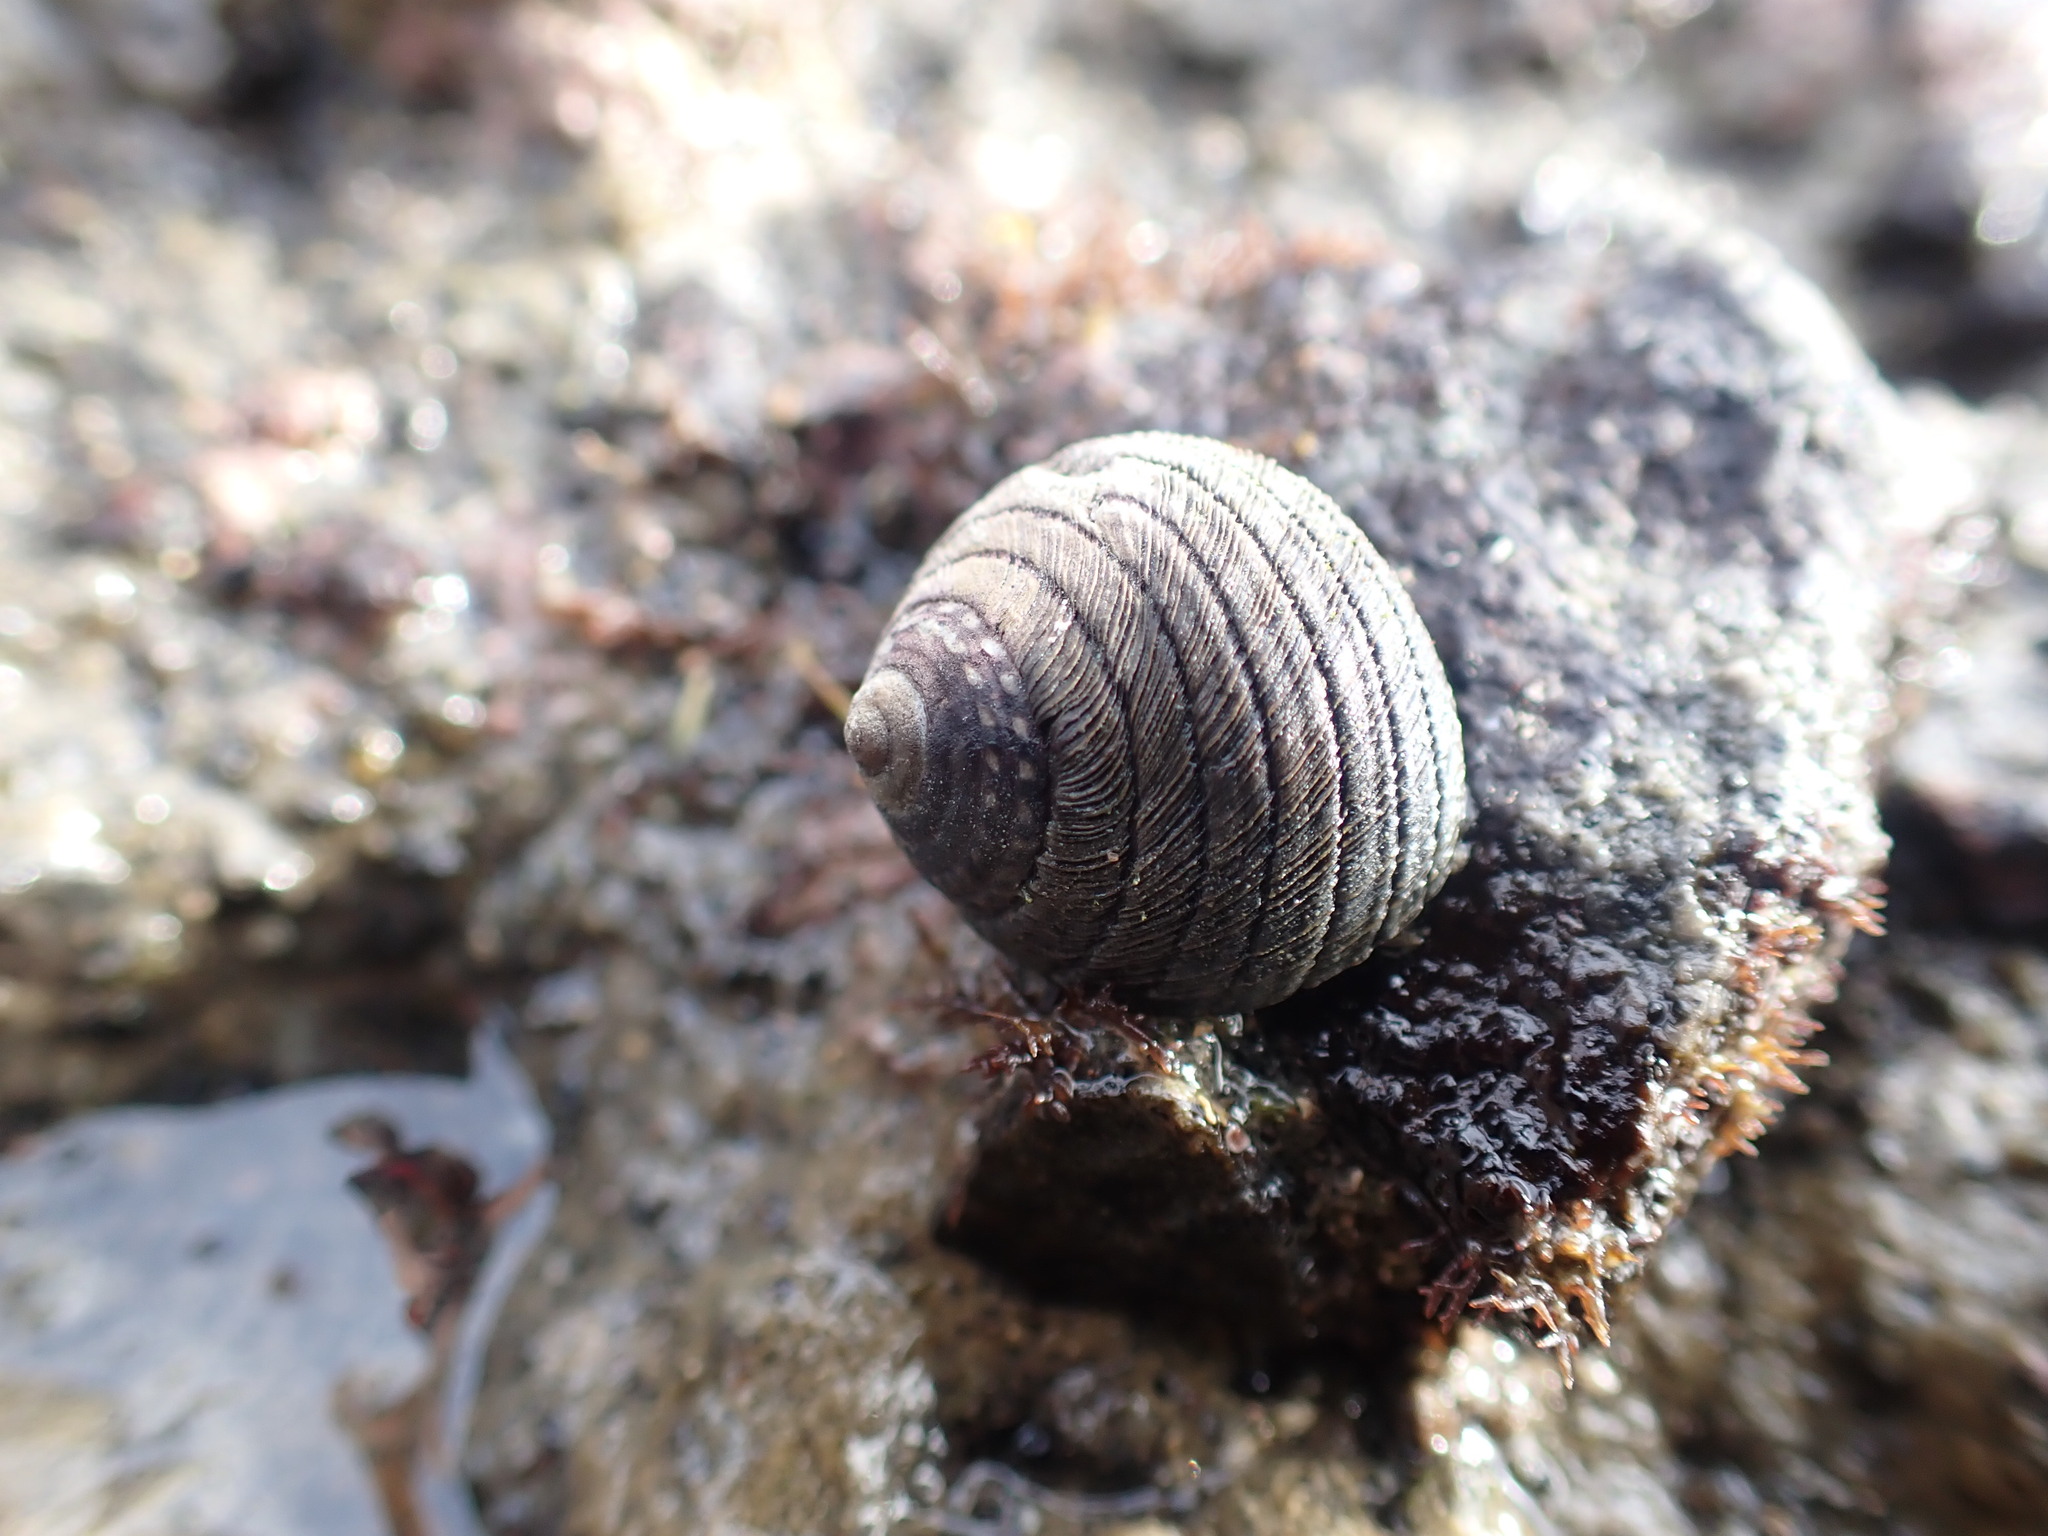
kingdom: Animalia
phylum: Mollusca
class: Gastropoda
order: Trochida
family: Trochidae
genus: Diloma
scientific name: Diloma aethiops
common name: Scorched monodont
